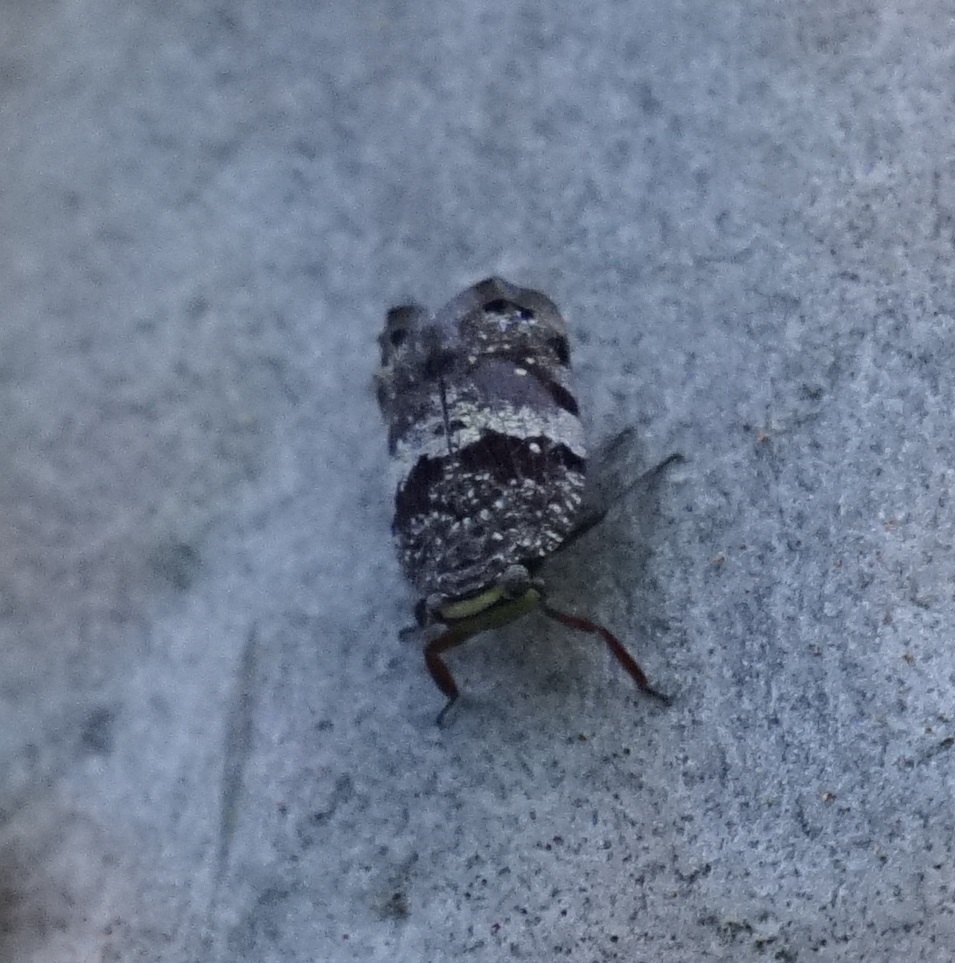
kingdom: Animalia
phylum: Arthropoda
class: Insecta
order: Hemiptera
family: Eurybrachidae
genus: Platybrachys
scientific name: Platybrachys decemmacula
